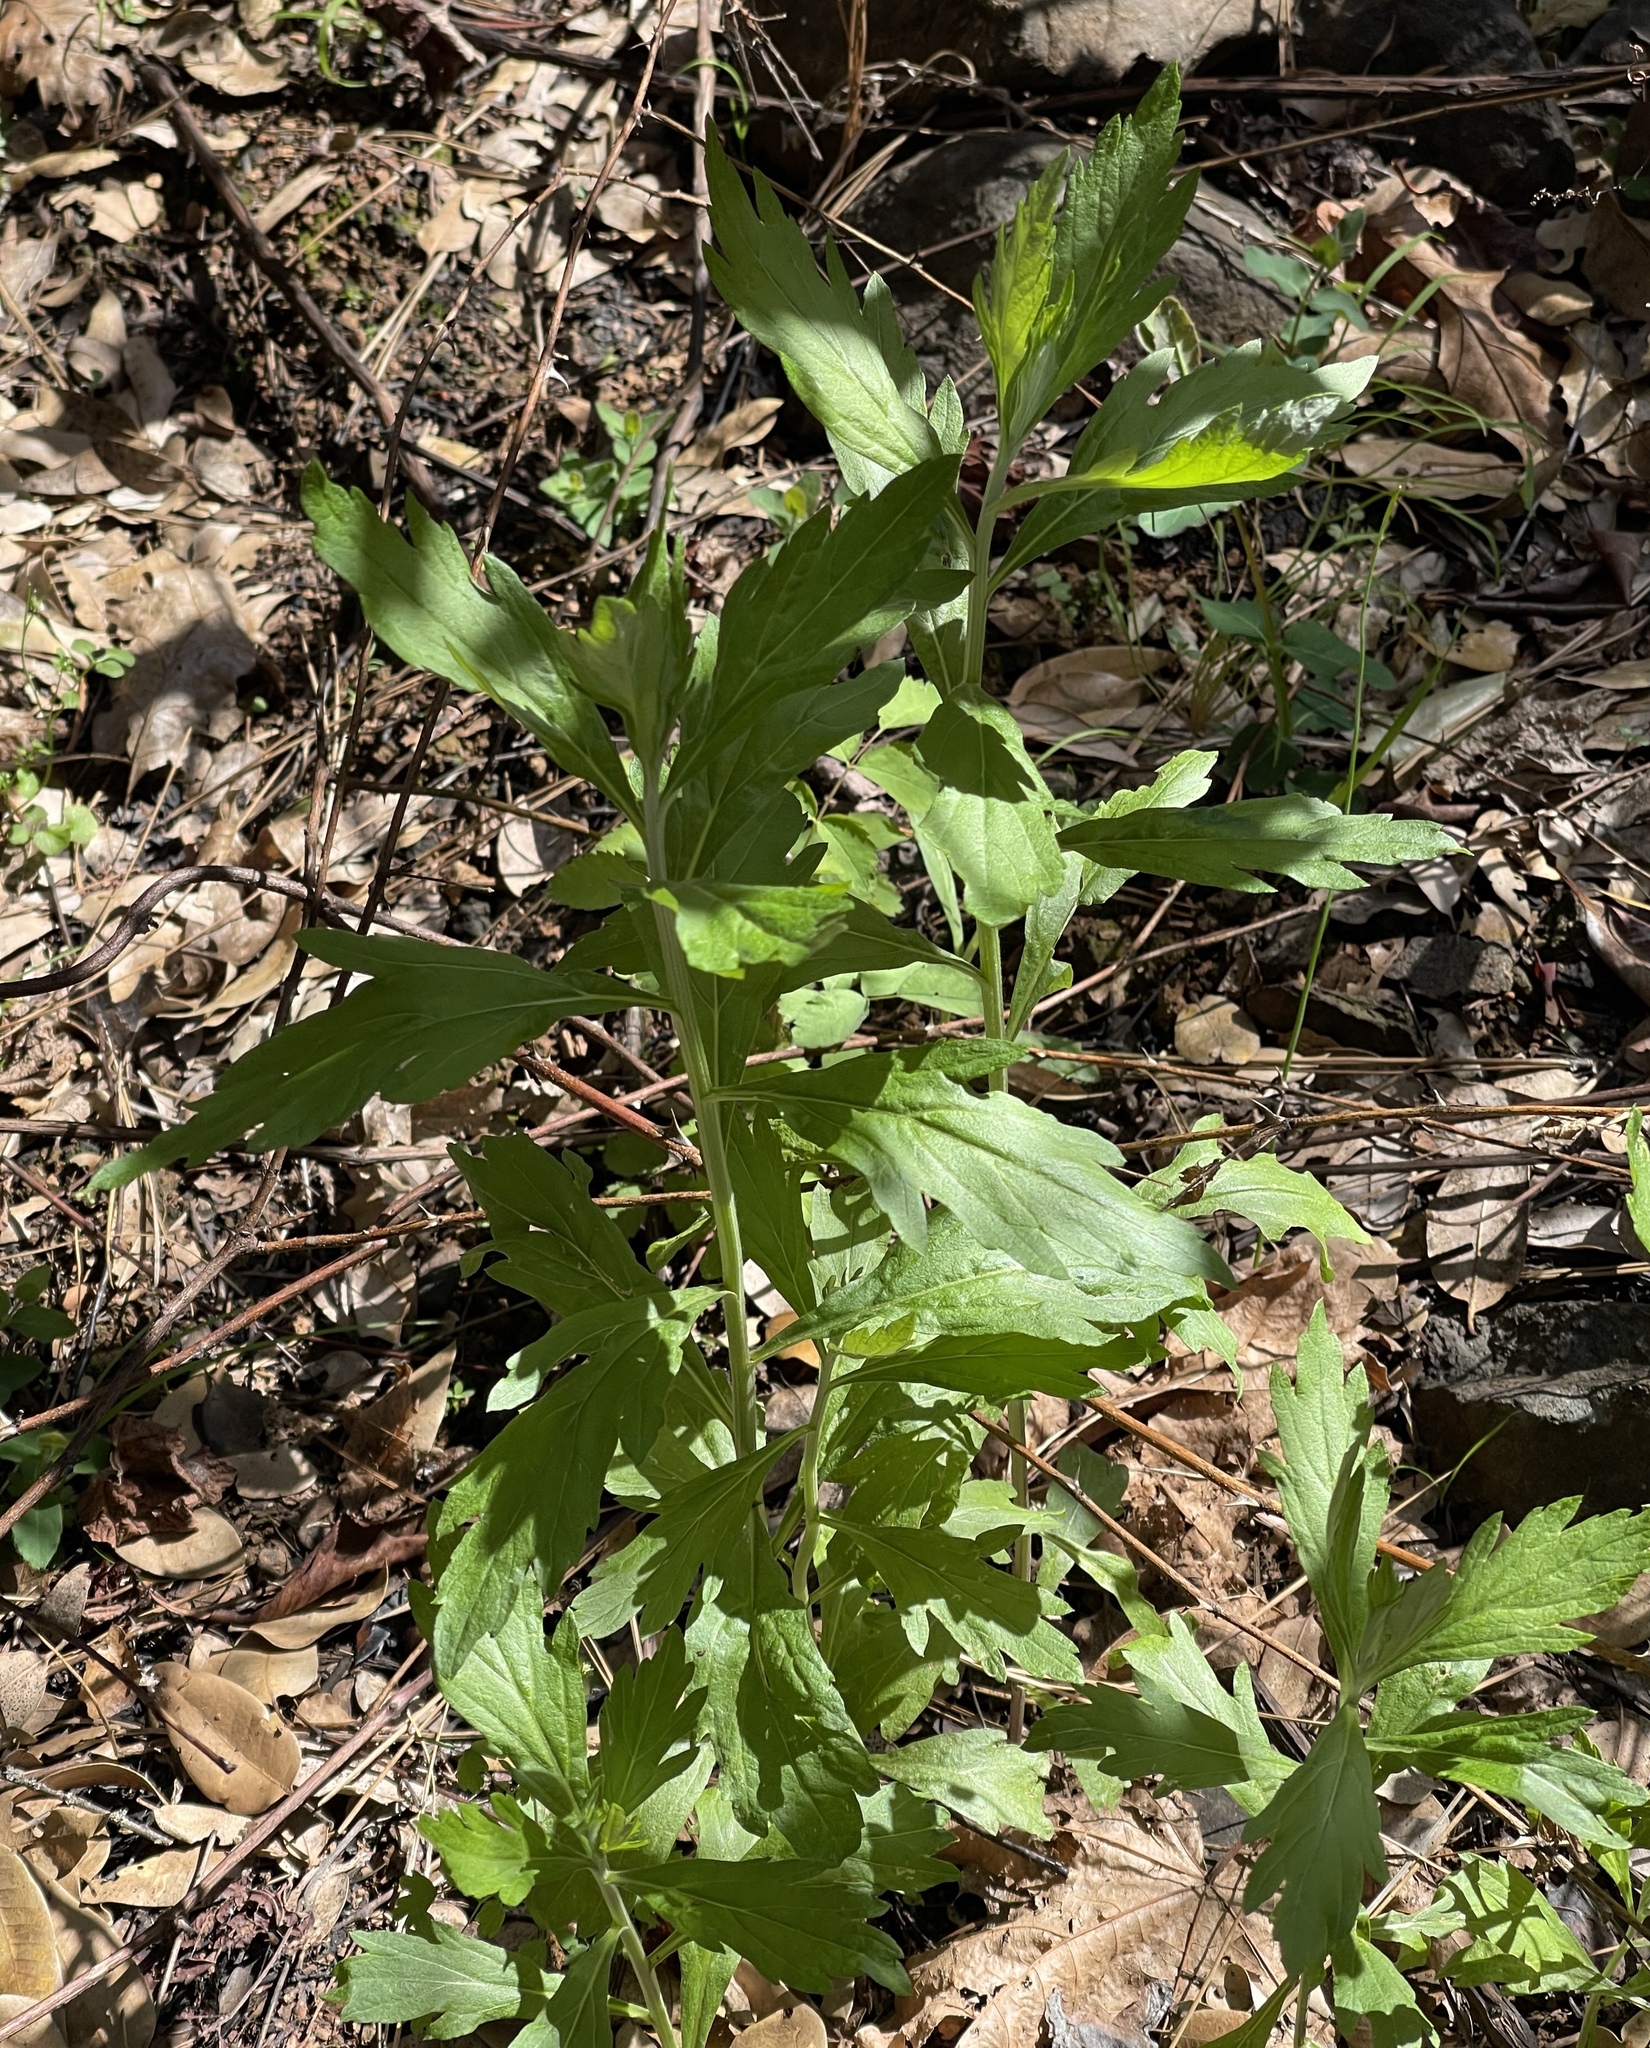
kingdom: Plantae
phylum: Tracheophyta
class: Magnoliopsida
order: Asterales
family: Asteraceae
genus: Artemisia
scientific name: Artemisia douglasiana
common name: Northwest mugwort
